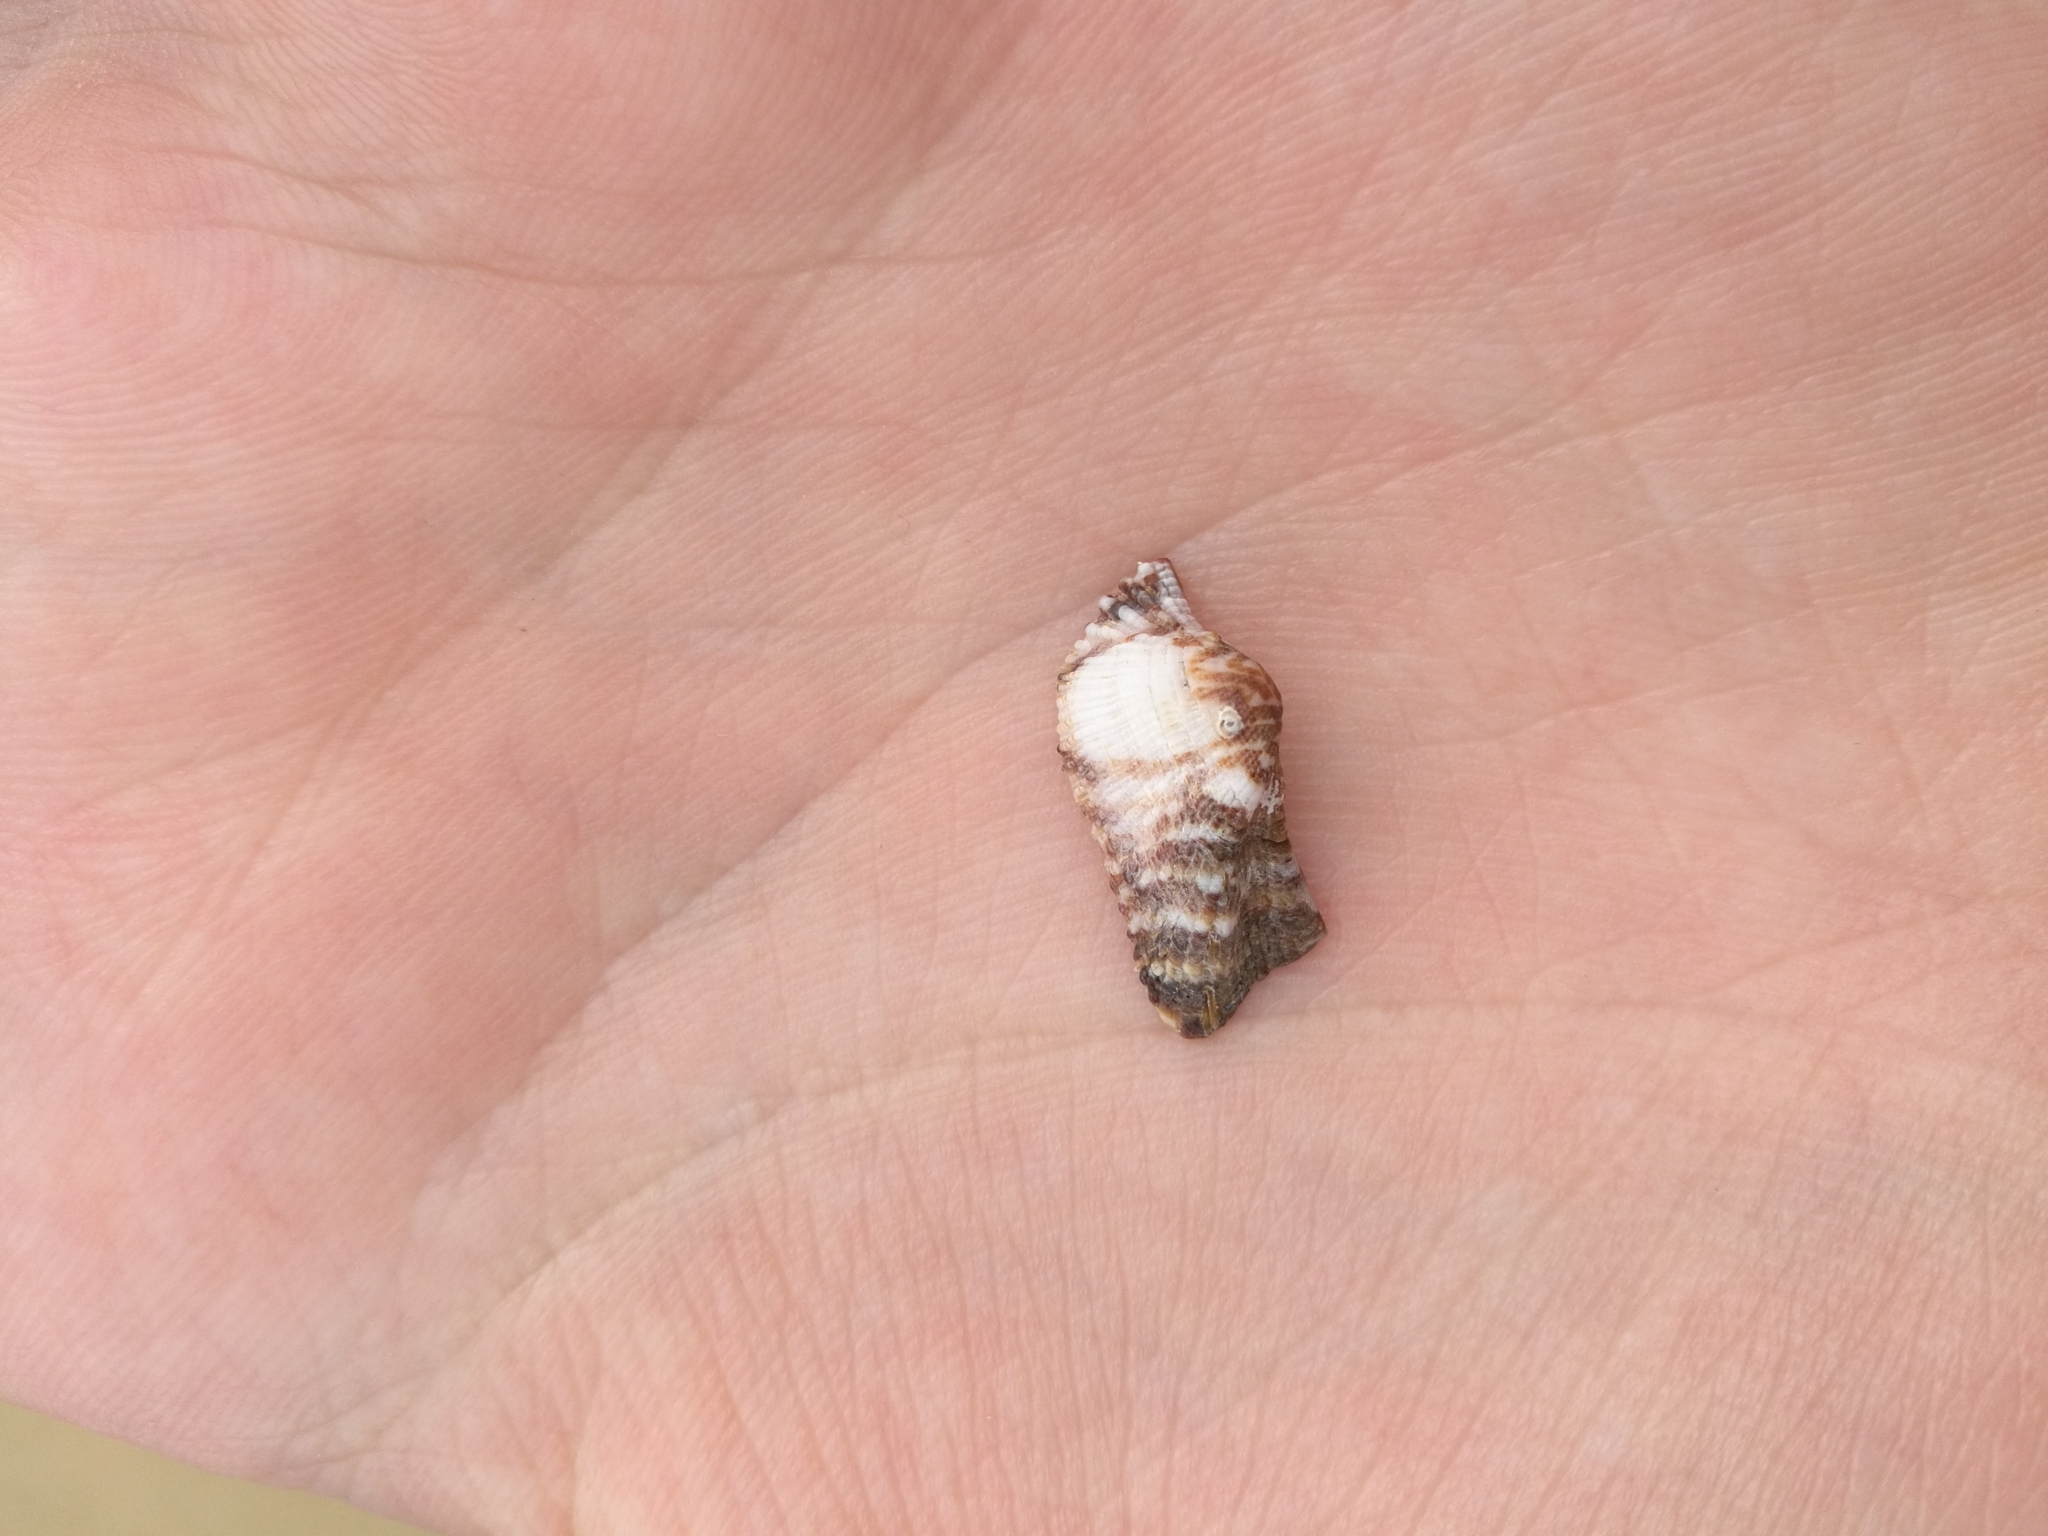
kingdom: Animalia
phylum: Mollusca
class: Bivalvia
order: Arcida
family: Arcidae
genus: Arca
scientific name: Arca noae
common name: Noah's arch
